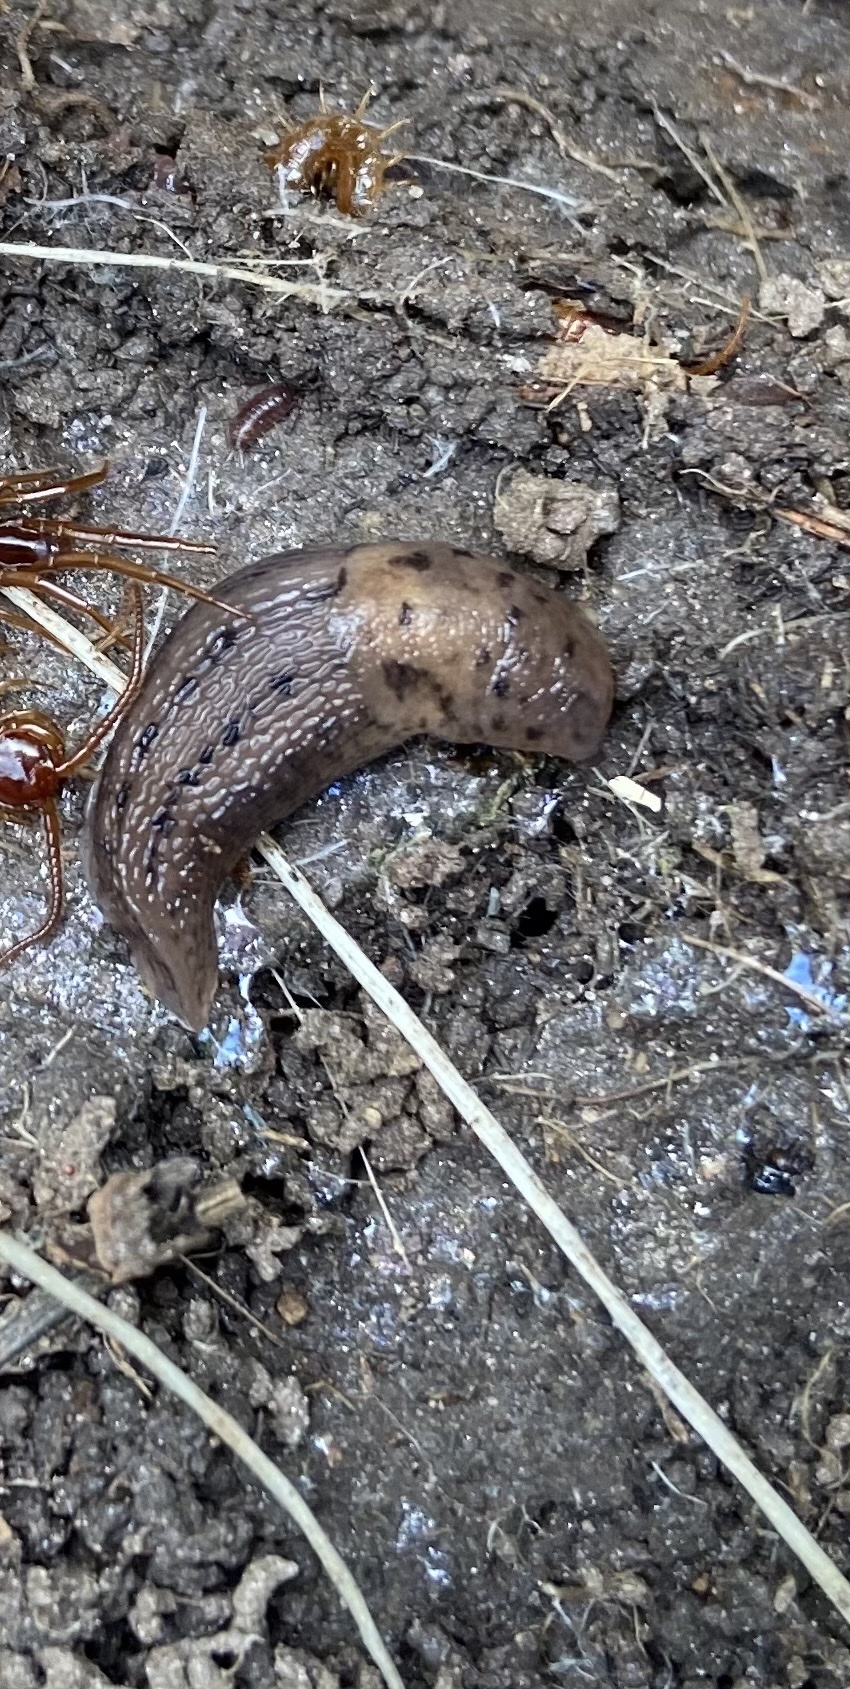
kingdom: Animalia
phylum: Mollusca
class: Gastropoda
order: Stylommatophora
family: Limacidae
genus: Limax
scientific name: Limax maximus
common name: Great grey slug
